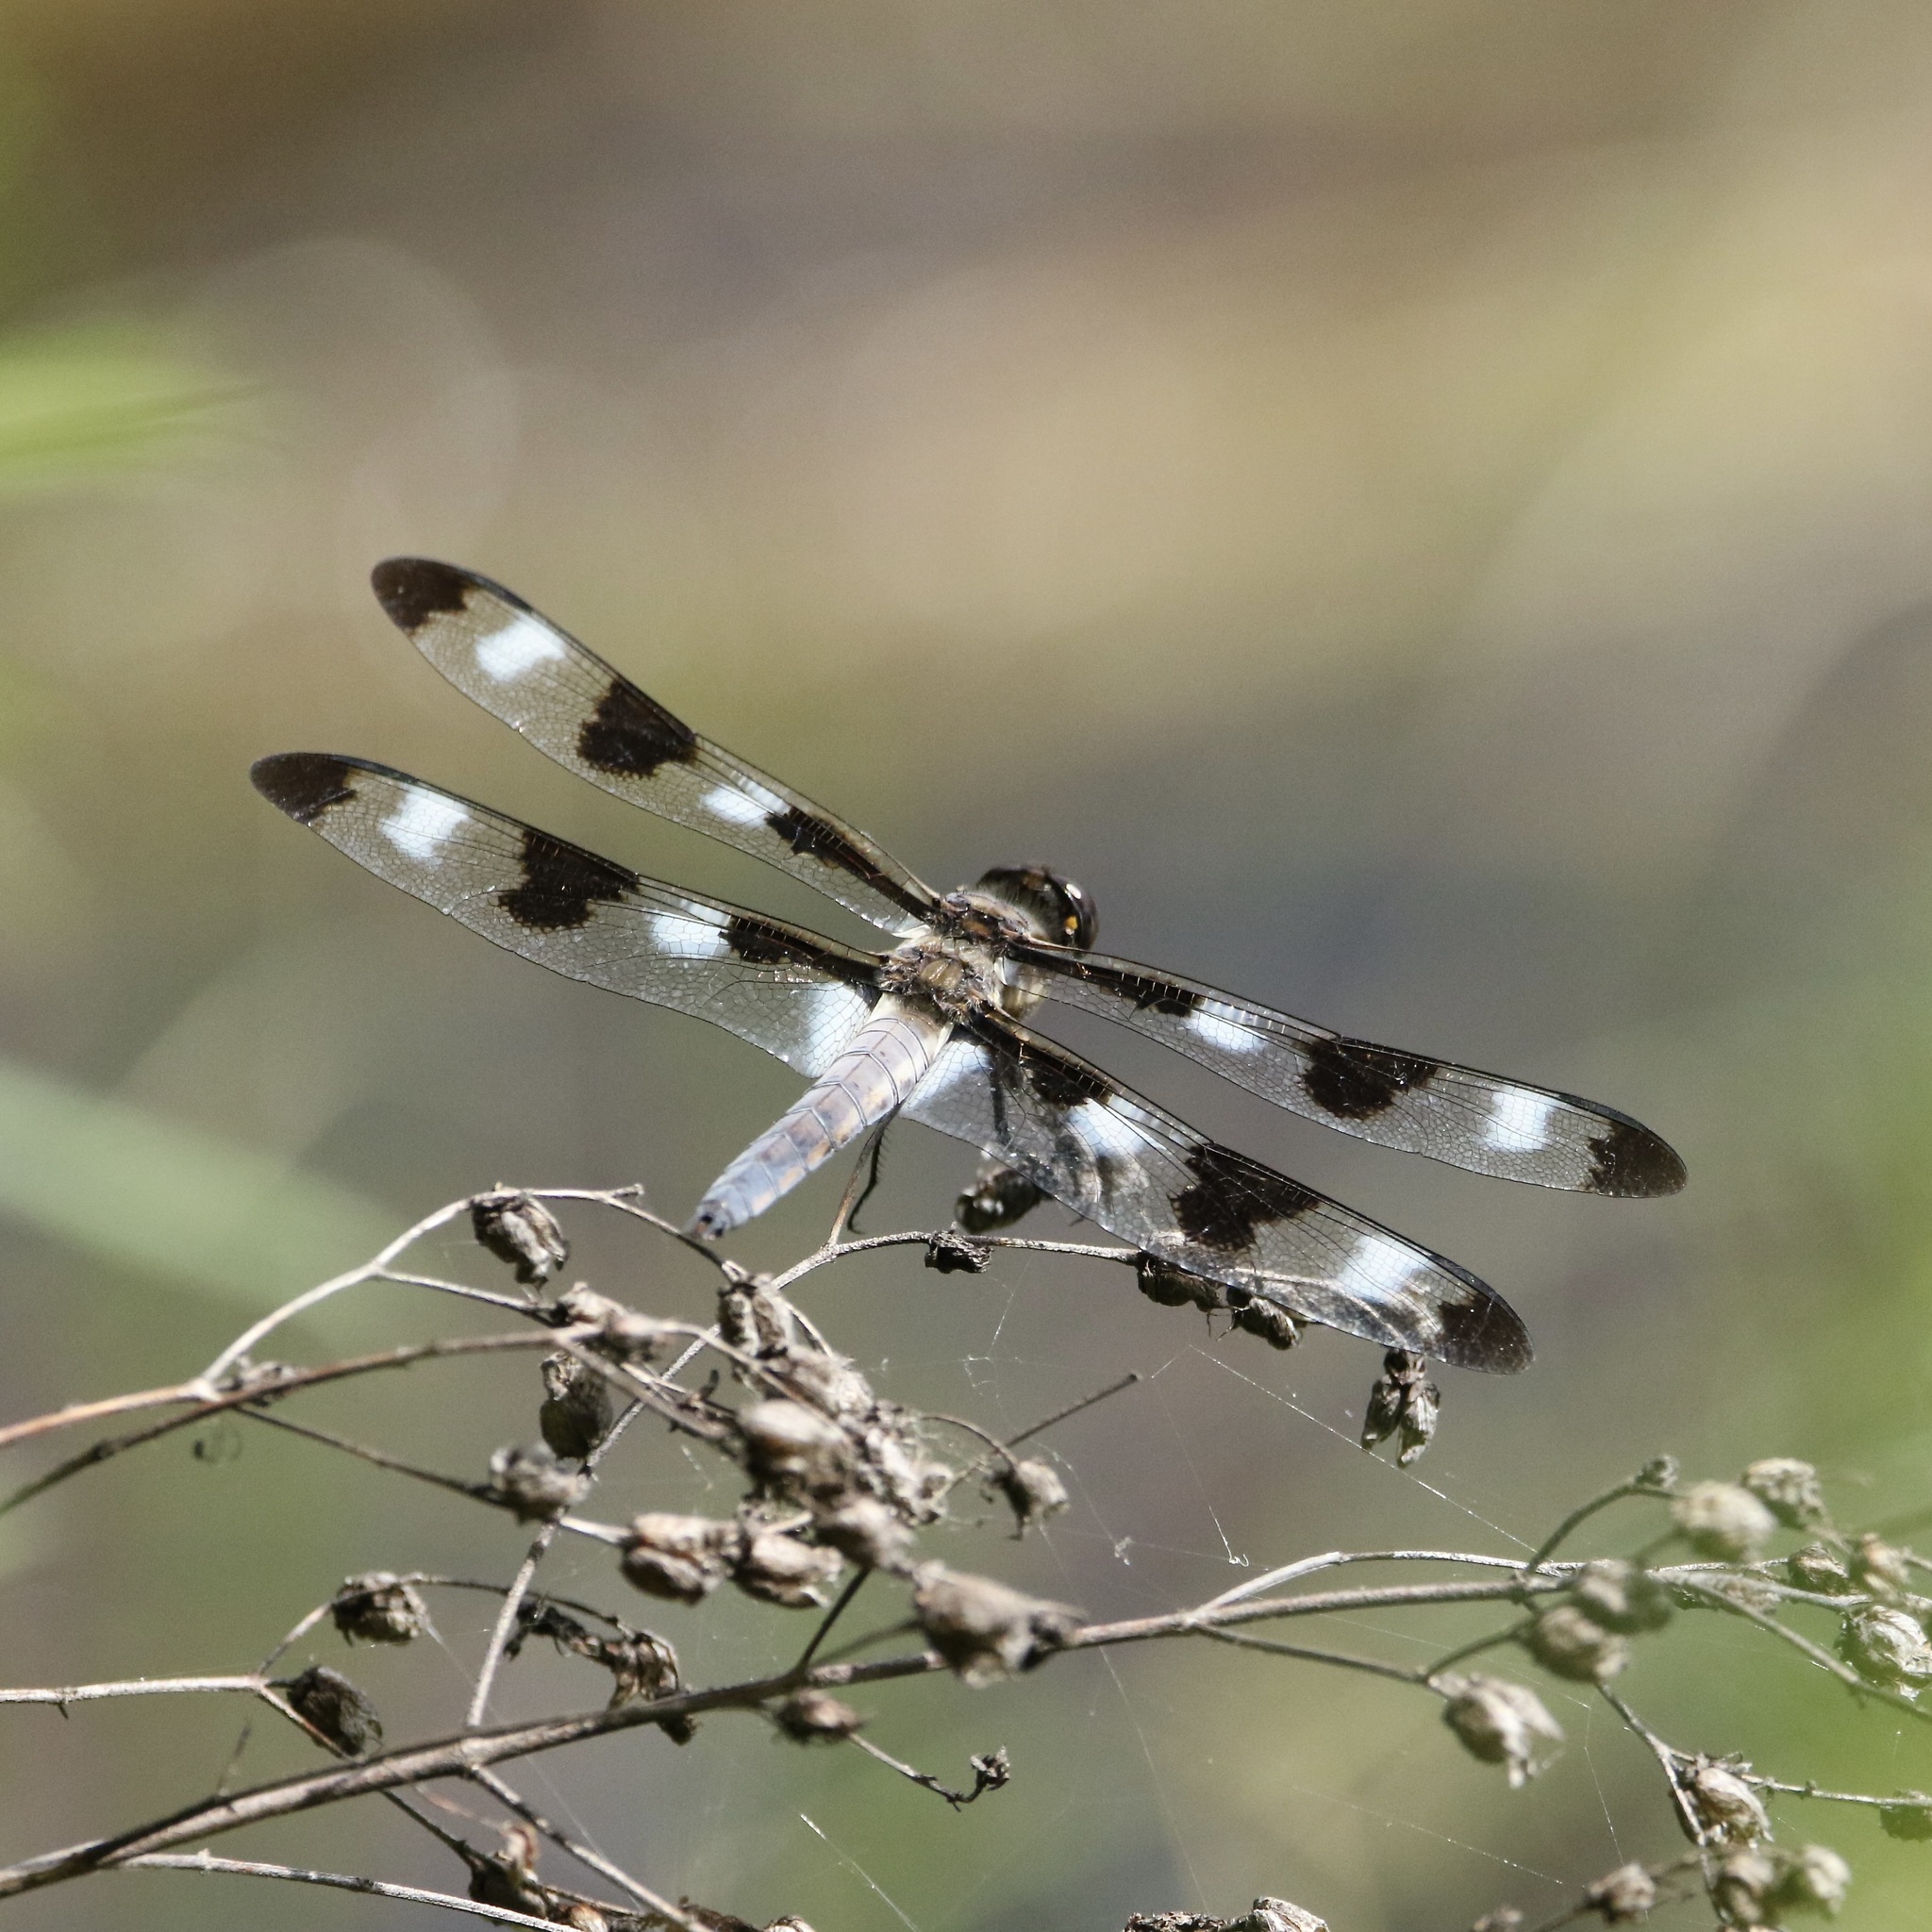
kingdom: Animalia
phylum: Arthropoda
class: Insecta
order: Odonata
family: Libellulidae
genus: Libellula
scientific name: Libellula pulchella
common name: Twelve-spotted skimmer
